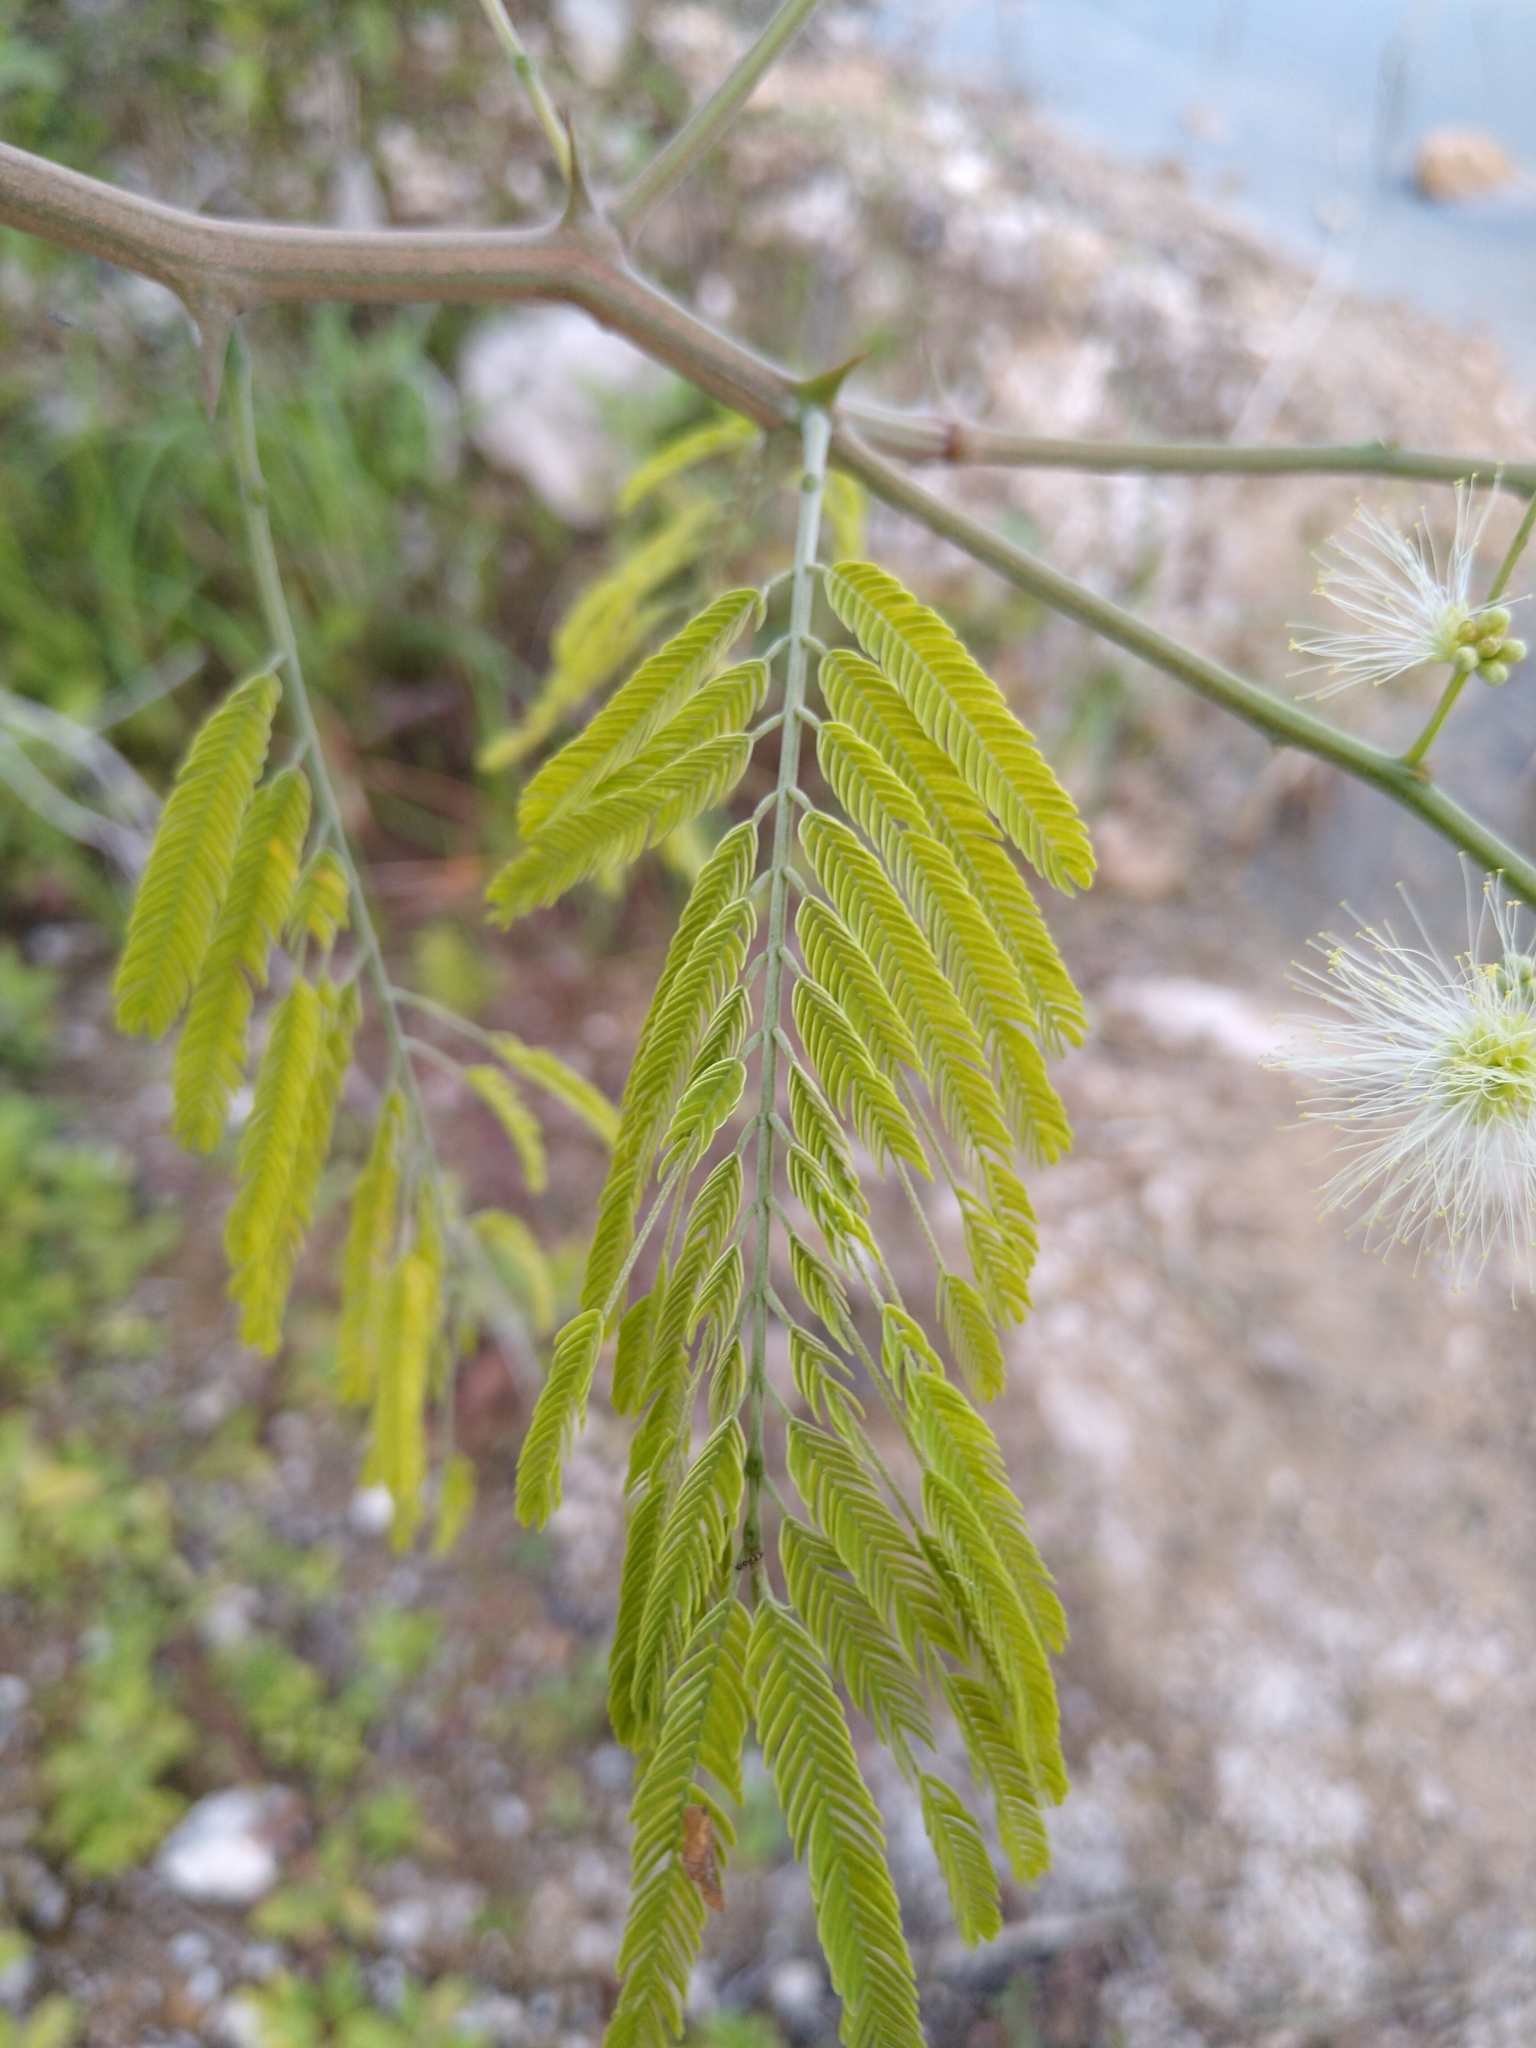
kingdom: Plantae
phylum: Tracheophyta
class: Magnoliopsida
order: Fabales
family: Fabaceae
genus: Havardia
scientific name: Havardia albicans
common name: Huisache
